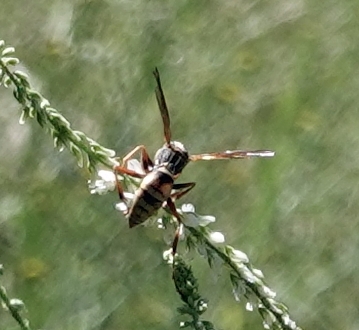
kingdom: Animalia
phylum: Arthropoda
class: Insecta
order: Hymenoptera
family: Eumenidae
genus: Polistes
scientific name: Polistes aurifer
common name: Paper wasp
